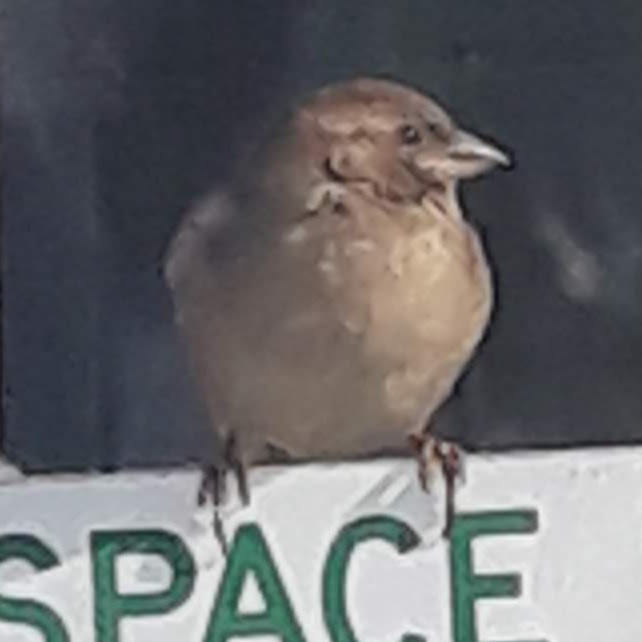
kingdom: Animalia
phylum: Chordata
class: Aves
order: Passeriformes
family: Passeridae
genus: Passer
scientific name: Passer domesticus
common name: House sparrow
